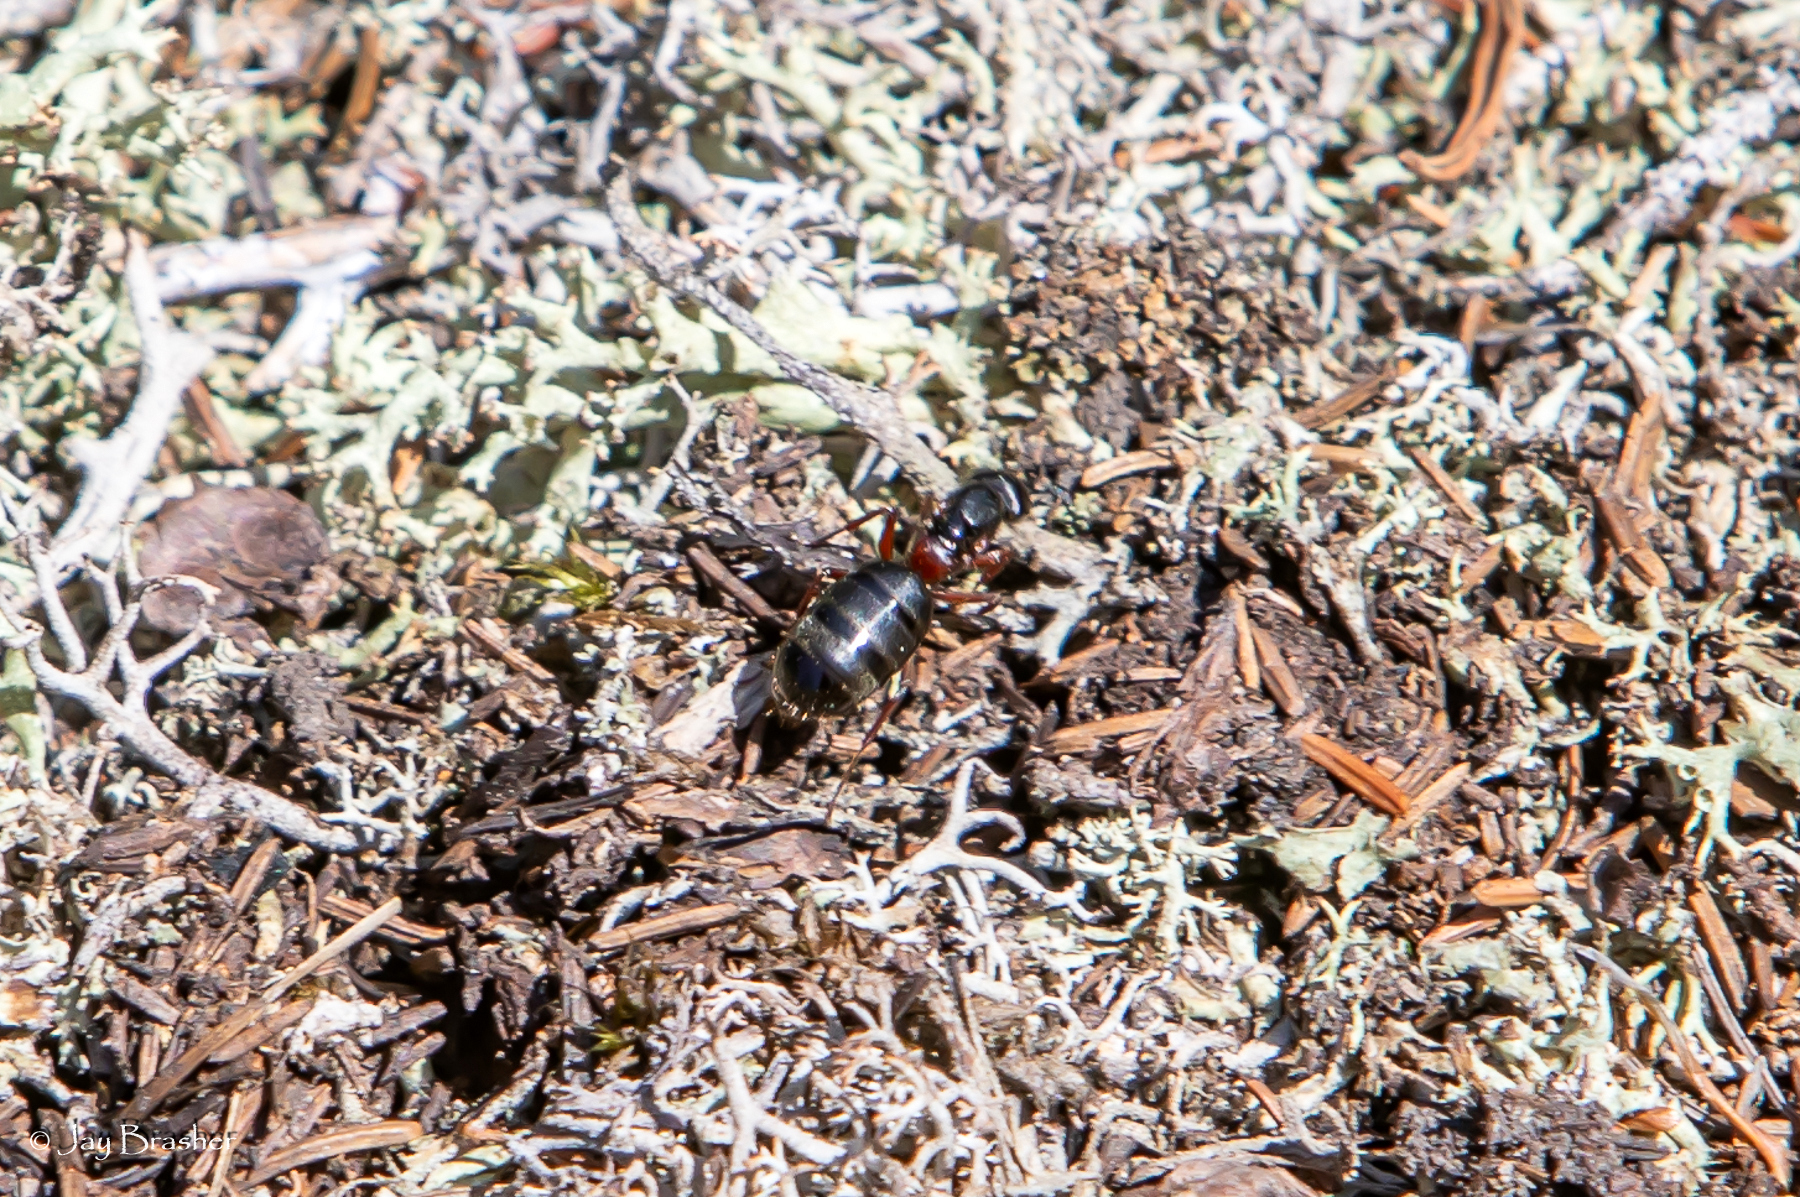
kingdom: Animalia
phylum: Arthropoda
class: Insecta
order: Hymenoptera
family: Formicidae
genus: Camponotus
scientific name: Camponotus herculeanus
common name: Hercules ant
